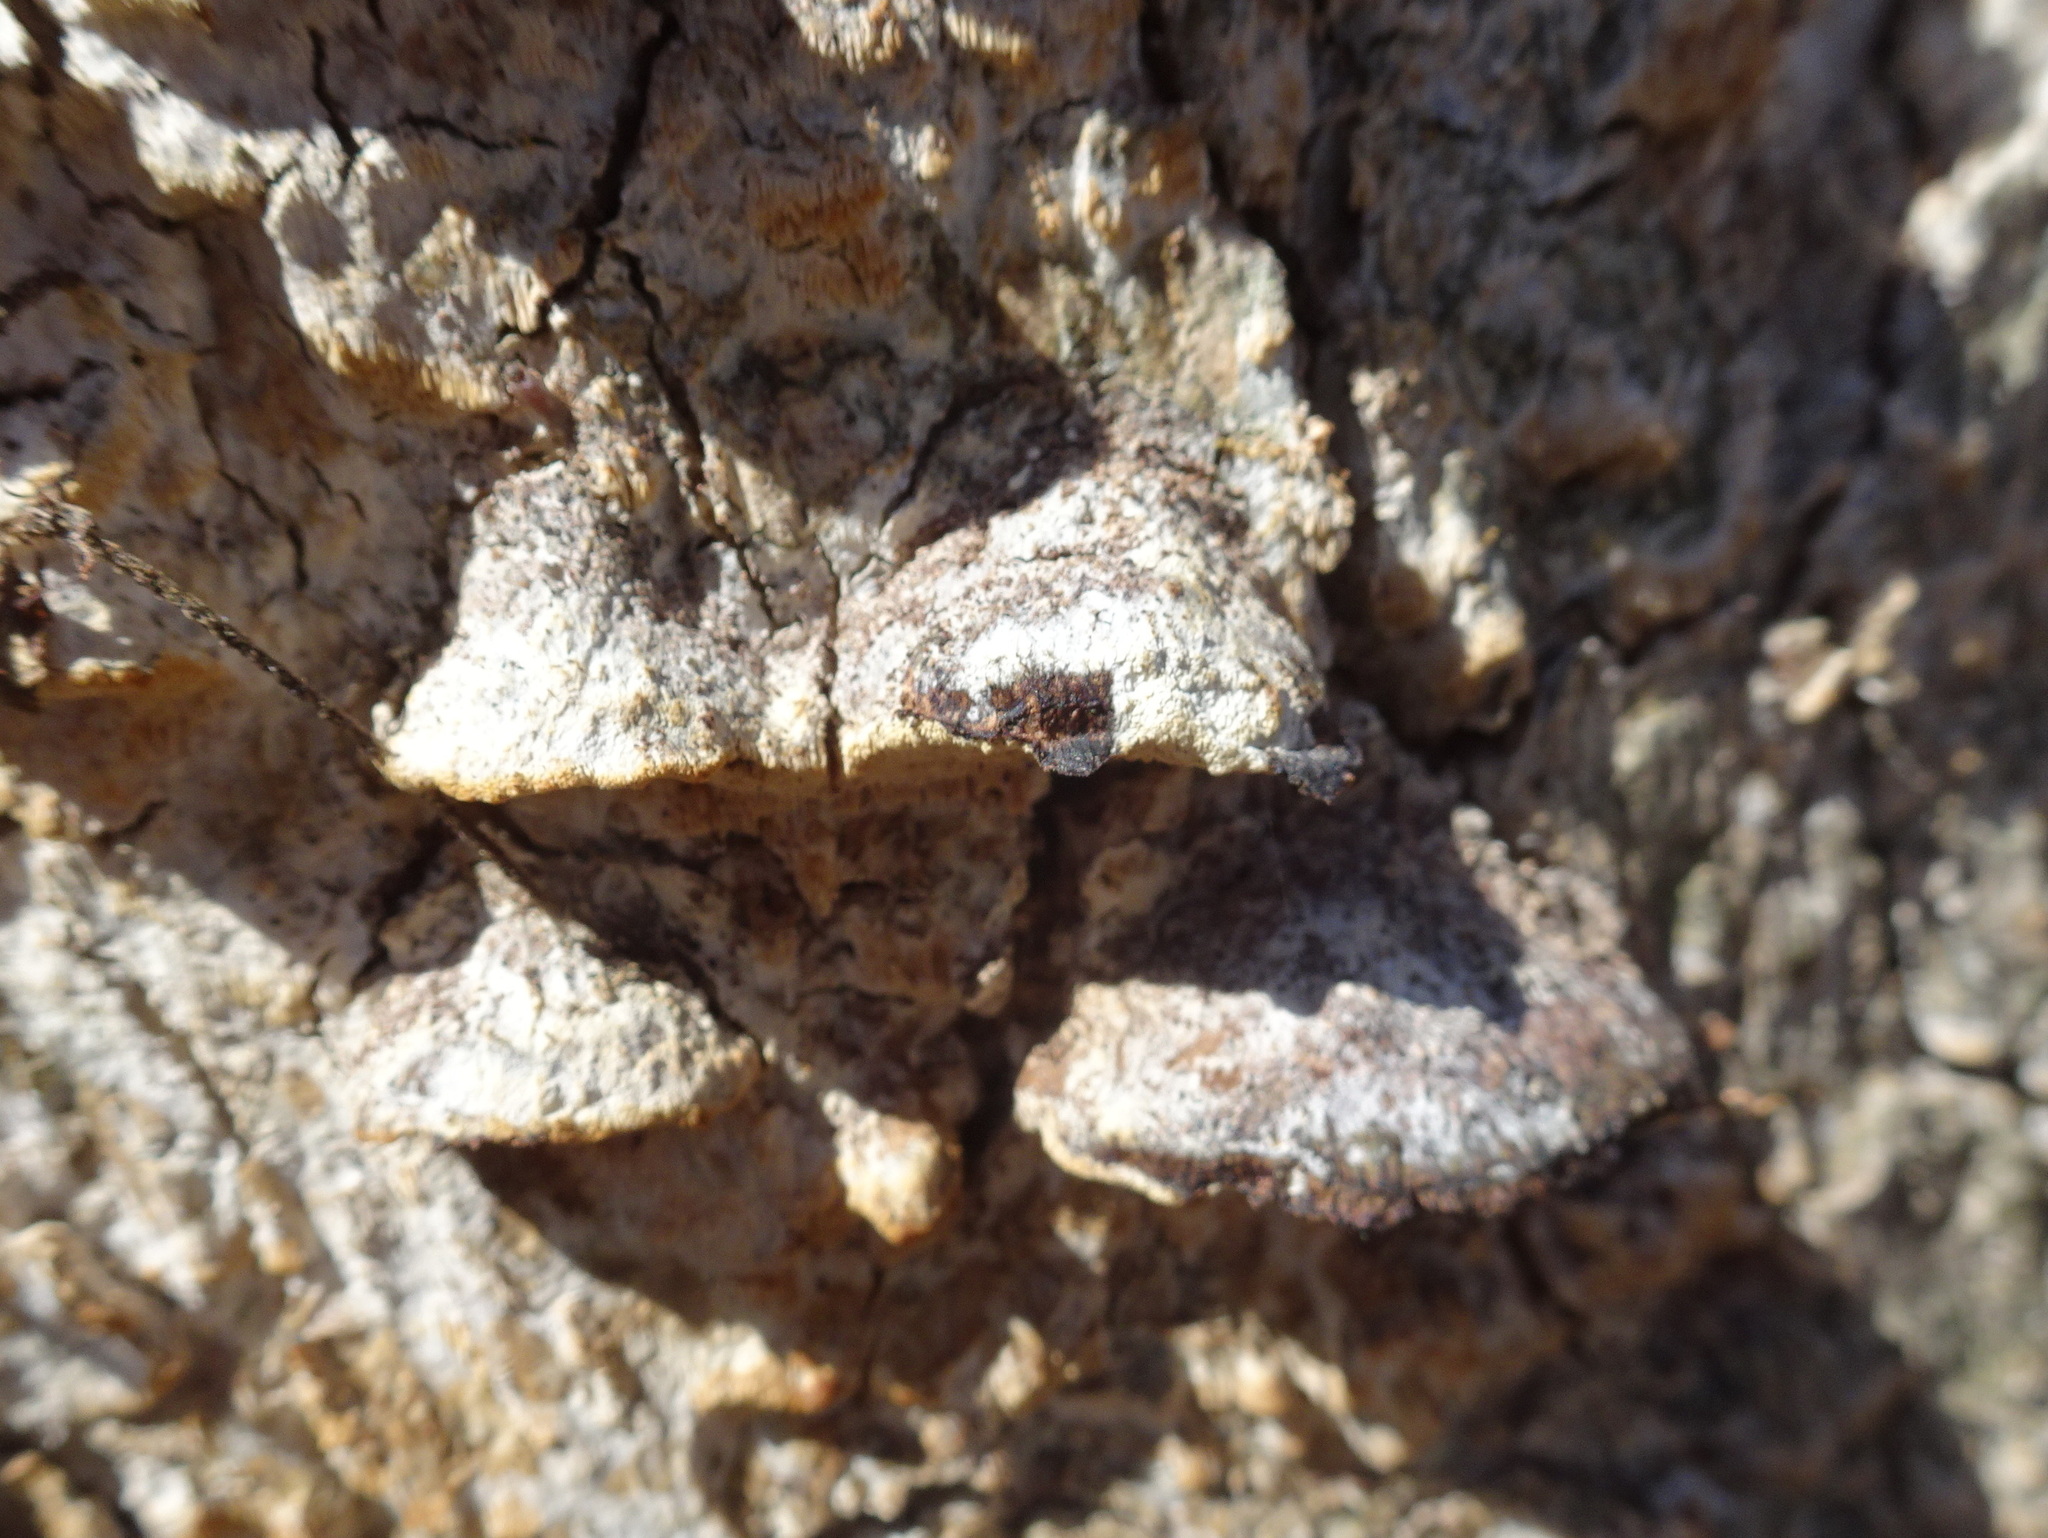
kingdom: Fungi
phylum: Basidiomycota
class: Agaricomycetes
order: Hymenochaetales
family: Hymenochaetaceae
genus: Phellinus
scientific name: Phellinus gilvus
